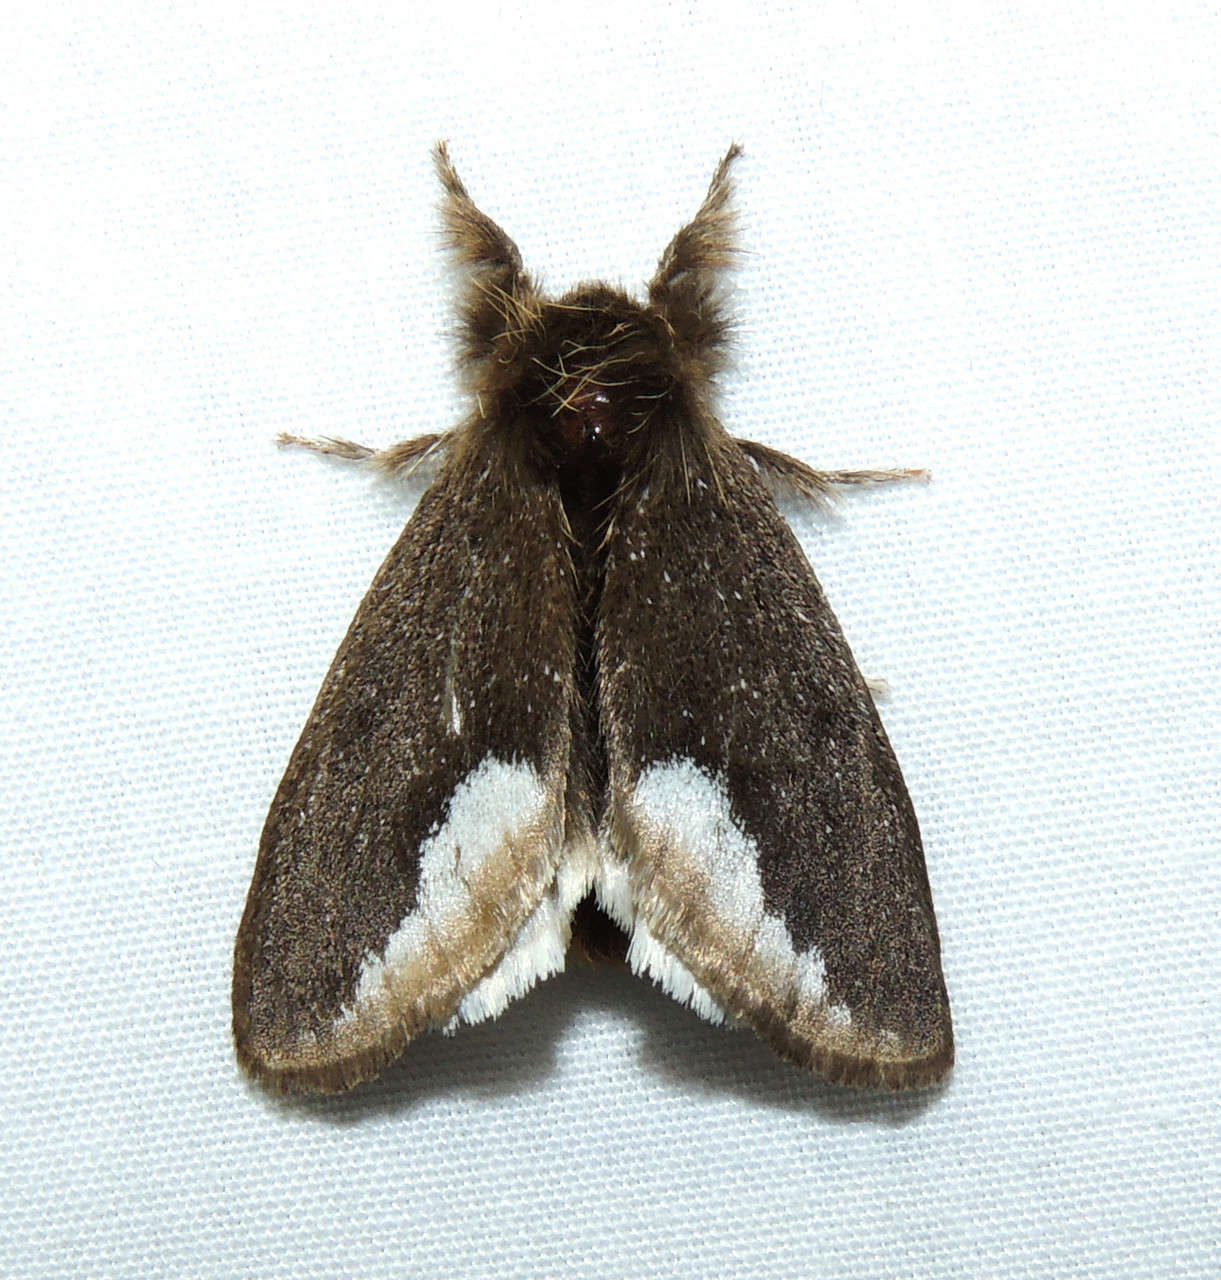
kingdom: Animalia
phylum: Arthropoda
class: Insecta
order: Lepidoptera
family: Erebidae
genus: Euproctis
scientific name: Euproctis
